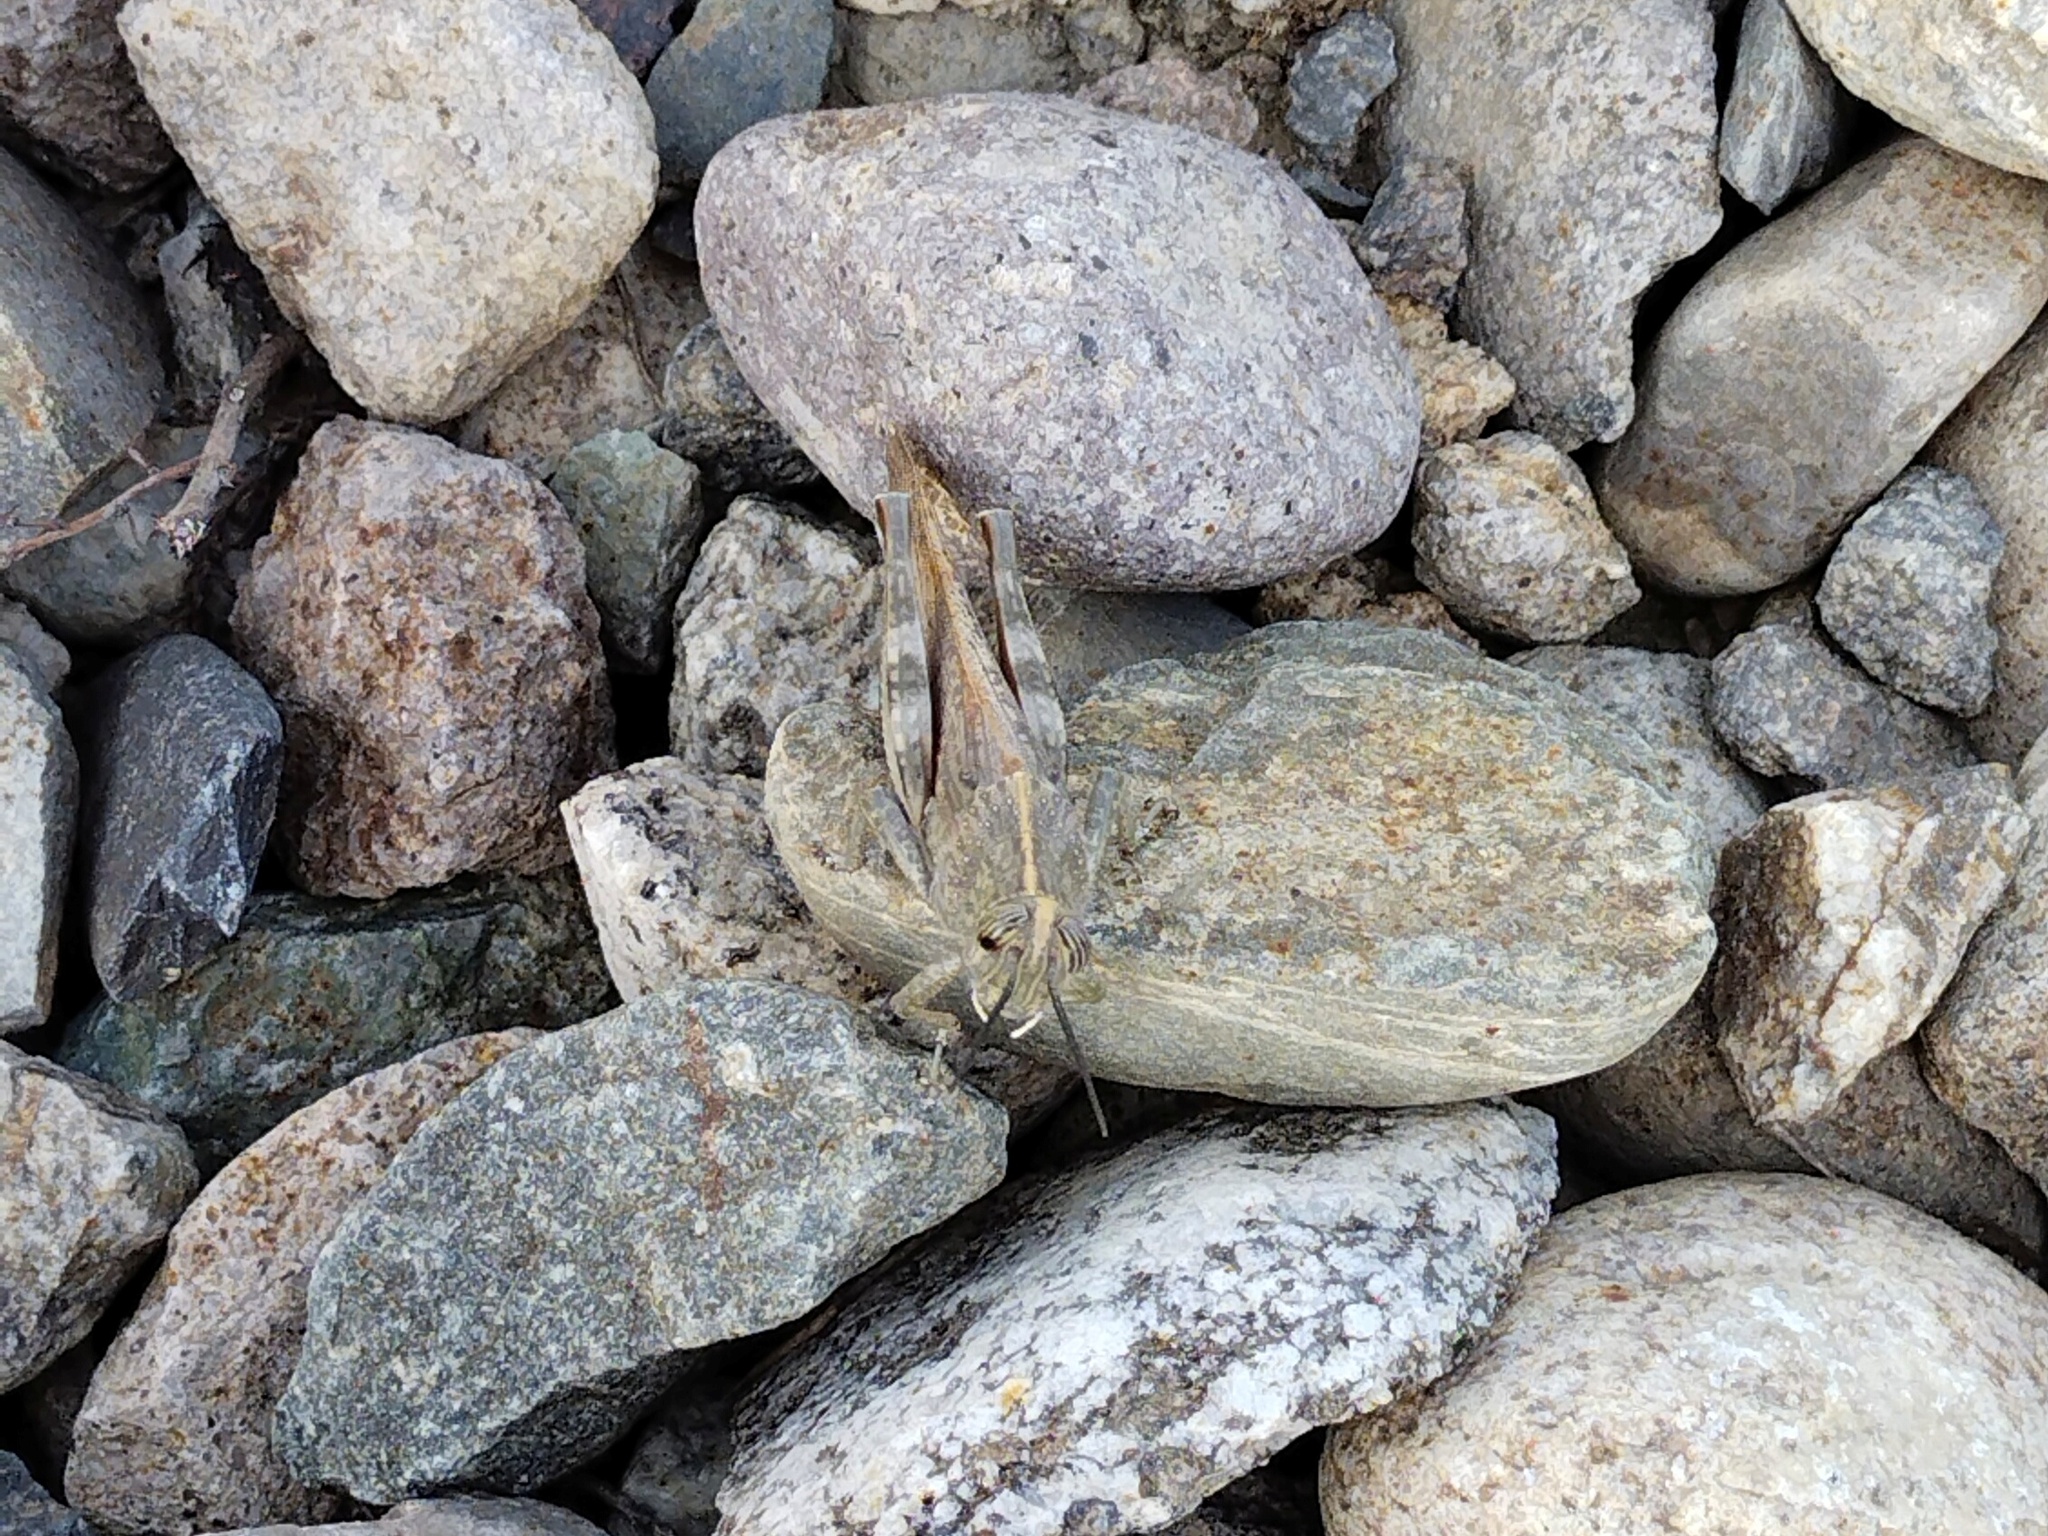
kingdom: Animalia
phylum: Arthropoda
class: Insecta
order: Orthoptera
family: Acrididae
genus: Anacridium
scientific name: Anacridium aegyptium
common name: Egyptian grasshopper
